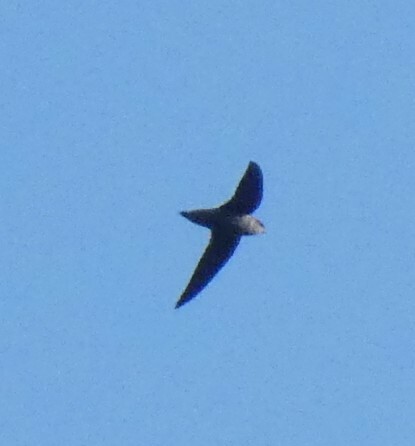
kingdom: Animalia
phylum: Chordata
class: Aves
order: Apodiformes
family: Apodidae
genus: Chaetura
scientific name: Chaetura pelagica
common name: Chimney swift
